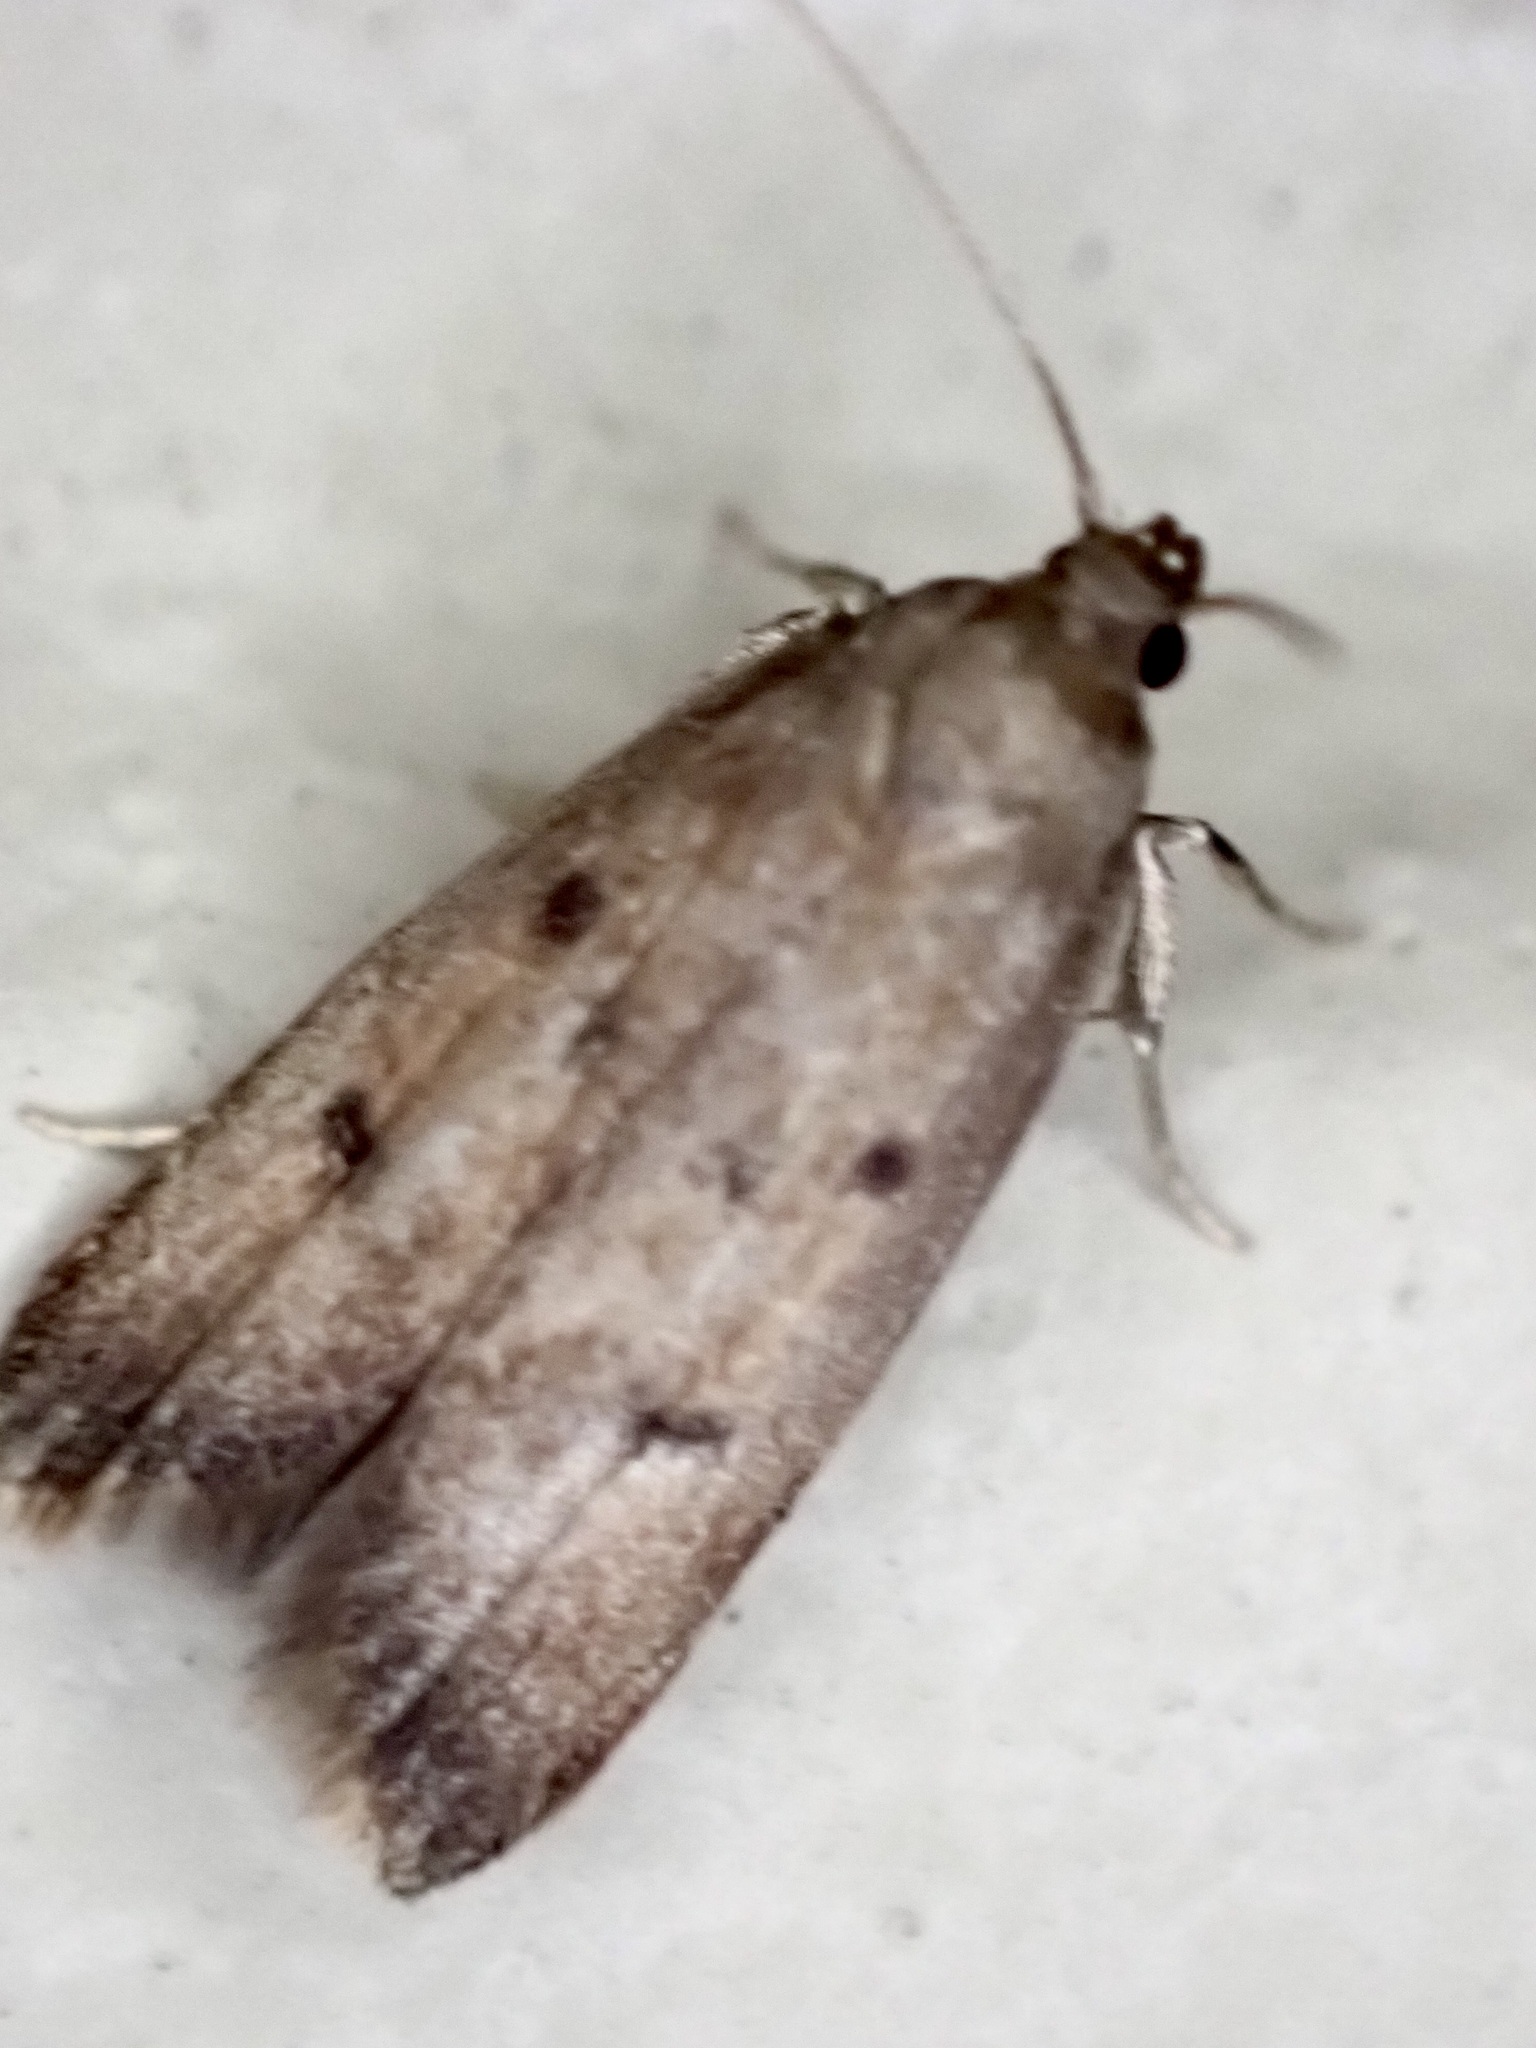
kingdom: Animalia
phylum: Arthropoda
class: Insecta
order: Lepidoptera
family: Oecophoridae
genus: Tachystola
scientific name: Tachystola acroxantha
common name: Ruddy streak
